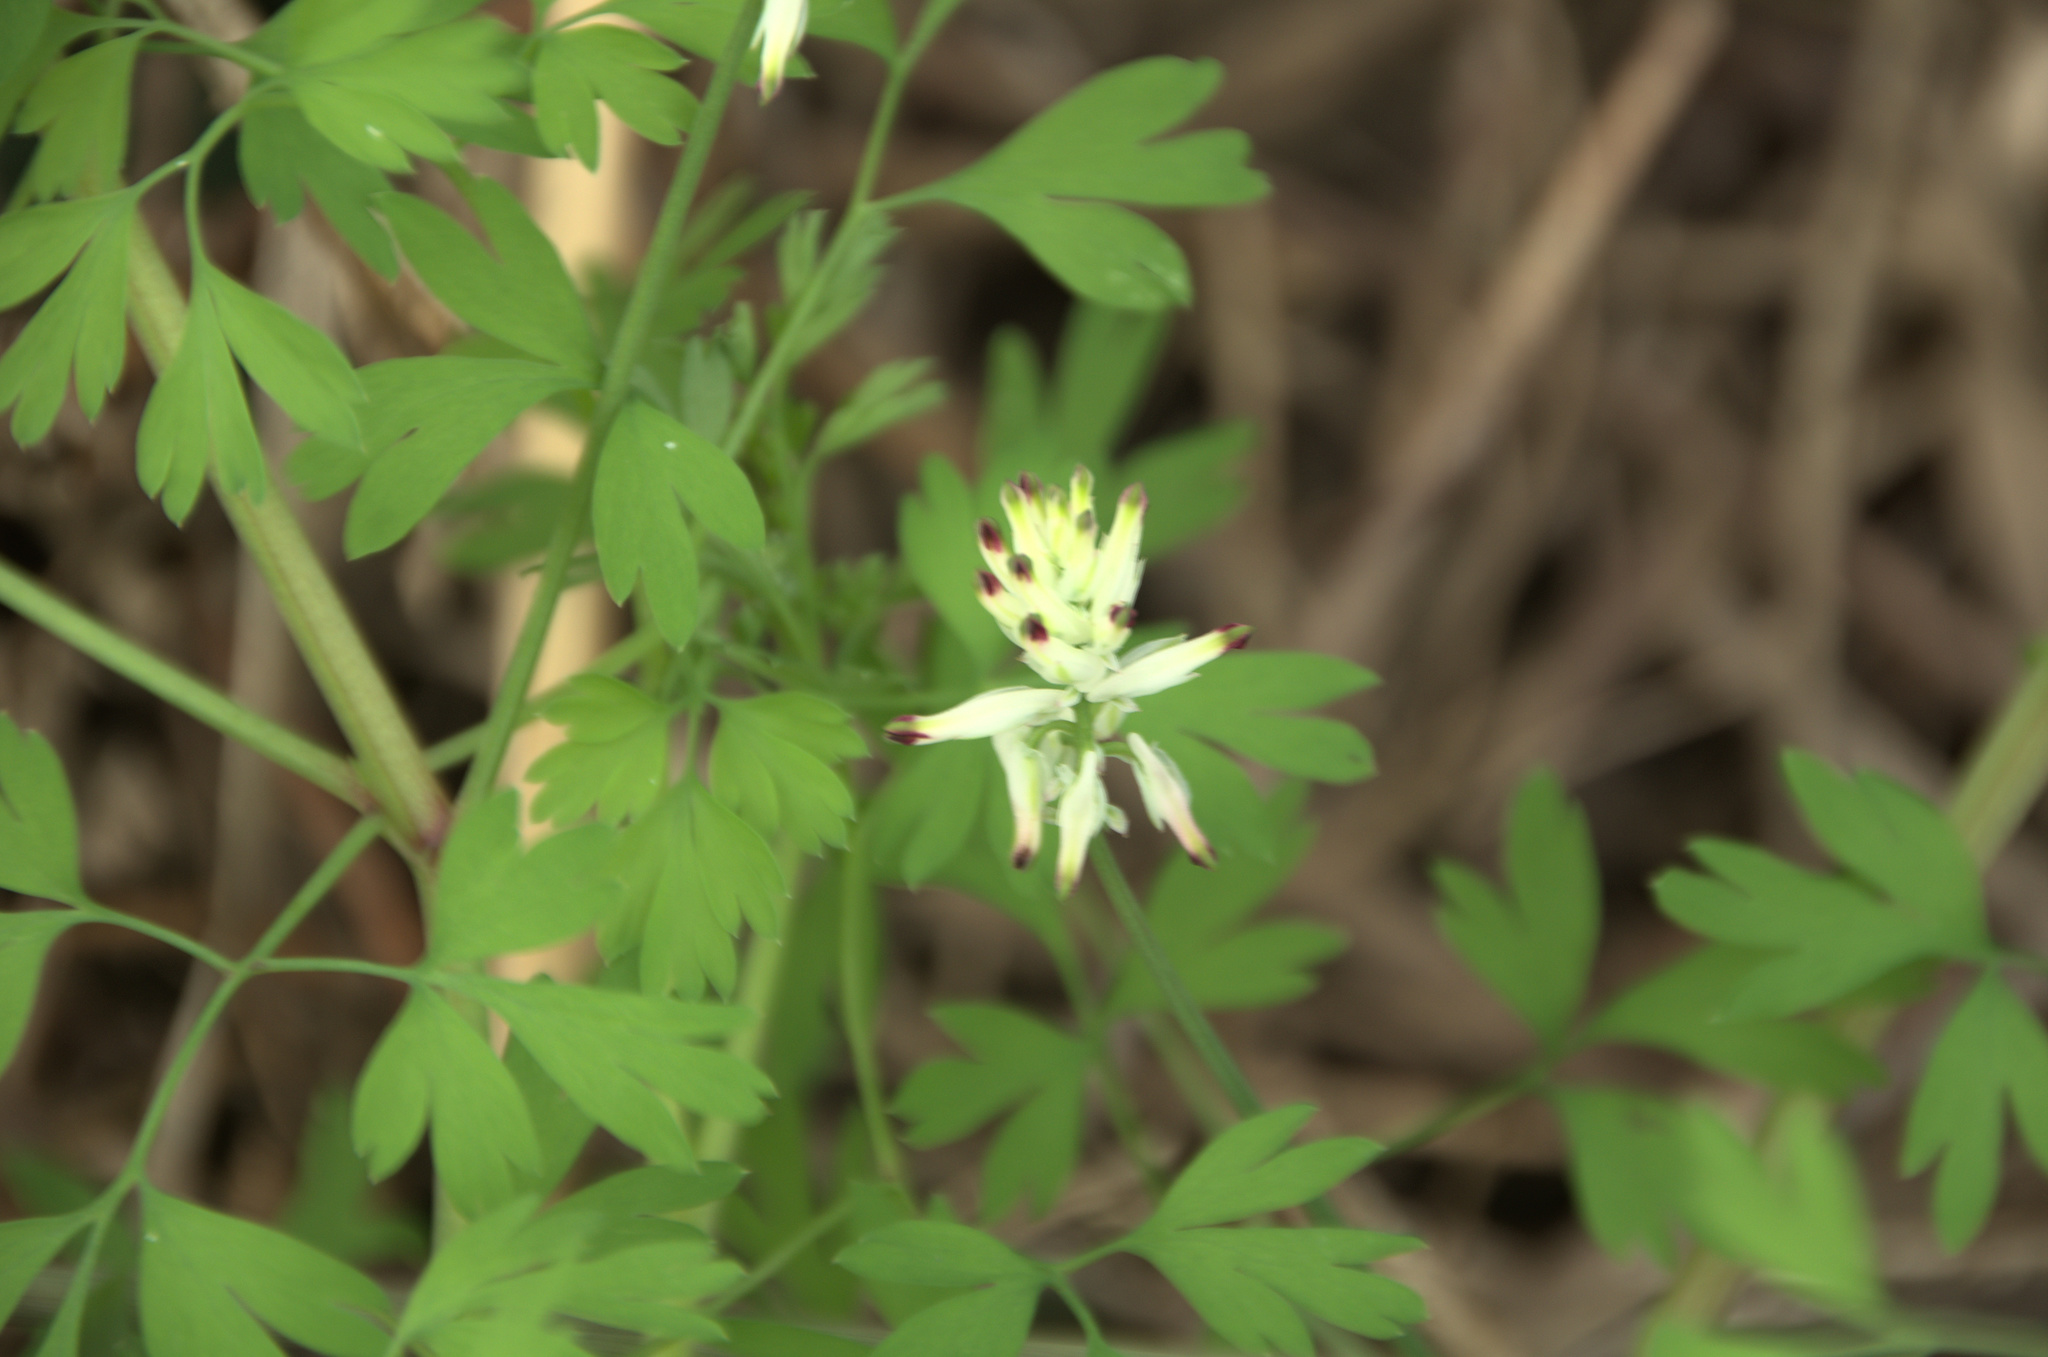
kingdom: Plantae
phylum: Tracheophyta
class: Magnoliopsida
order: Ranunculales
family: Papaveraceae
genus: Fumaria
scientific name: Fumaria capreolata
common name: White ramping-fumitory
